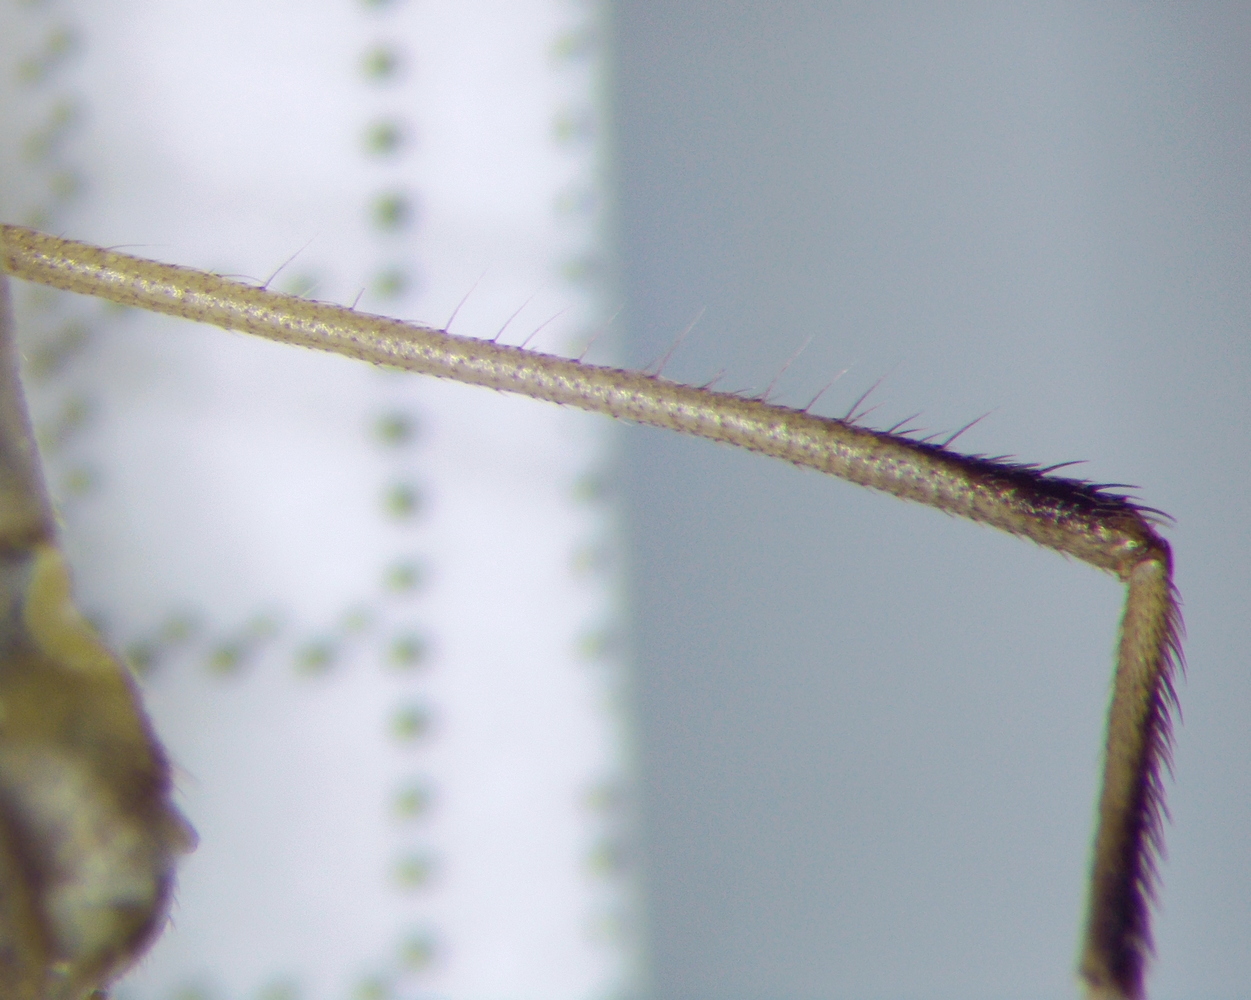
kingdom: Animalia
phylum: Arthropoda
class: Insecta
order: Hemiptera
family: Rhopalidae
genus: Chorosoma
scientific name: Chorosoma schillingii
